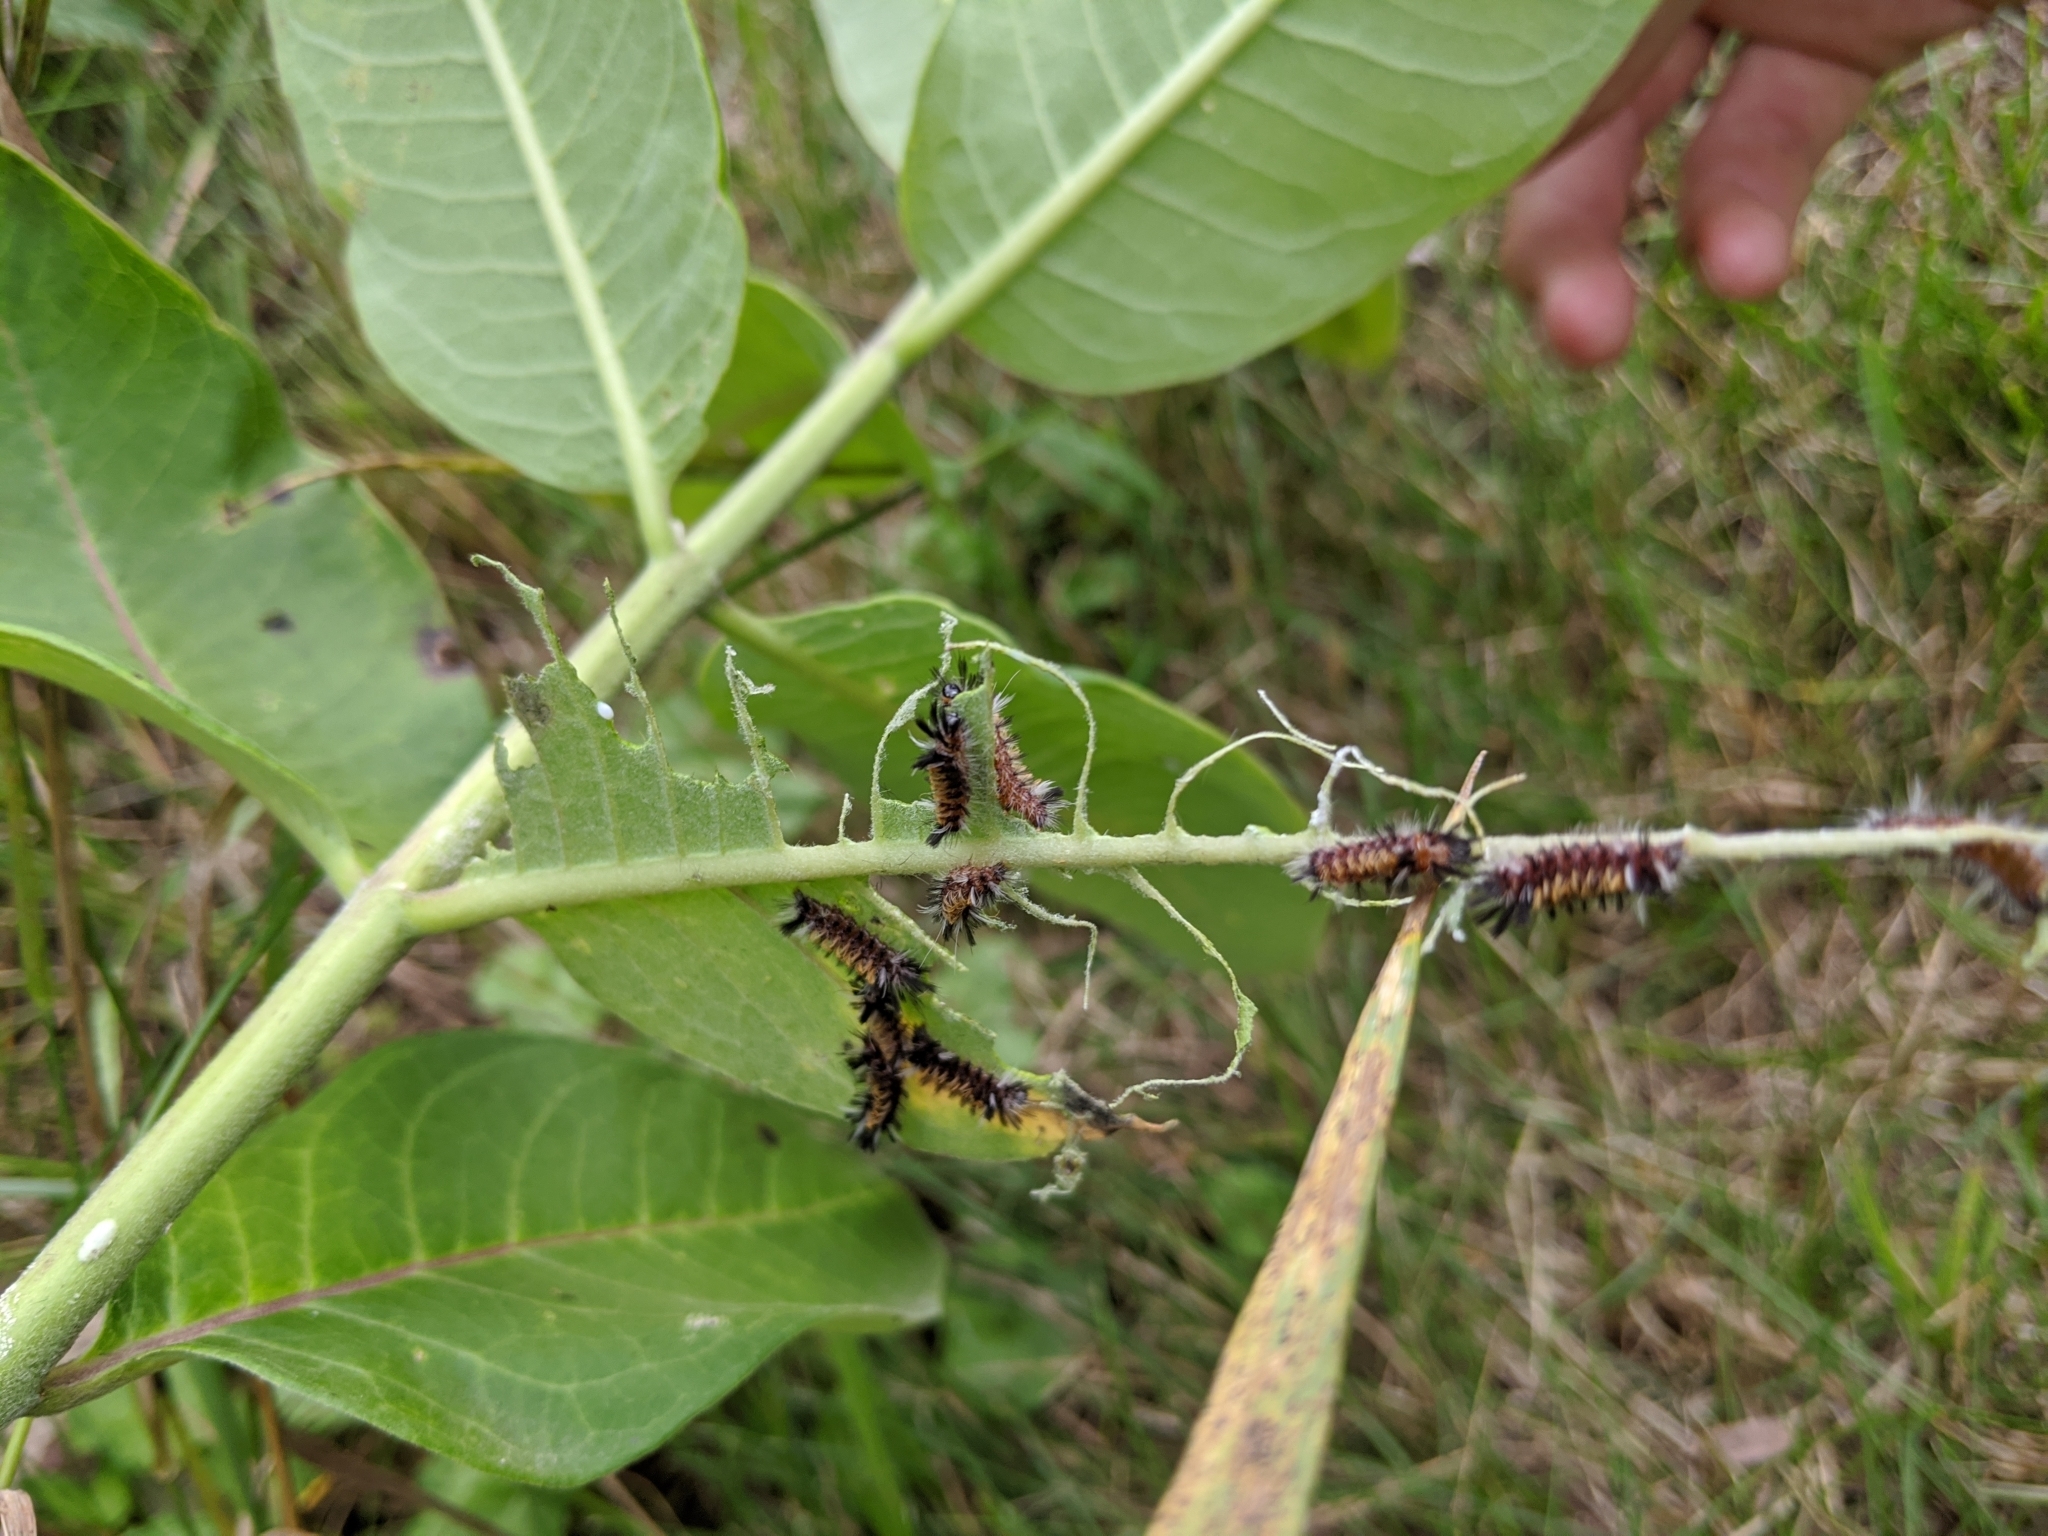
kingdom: Animalia
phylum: Arthropoda
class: Insecta
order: Lepidoptera
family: Erebidae
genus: Euchaetes
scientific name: Euchaetes egle
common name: Milkweed tussock moth
